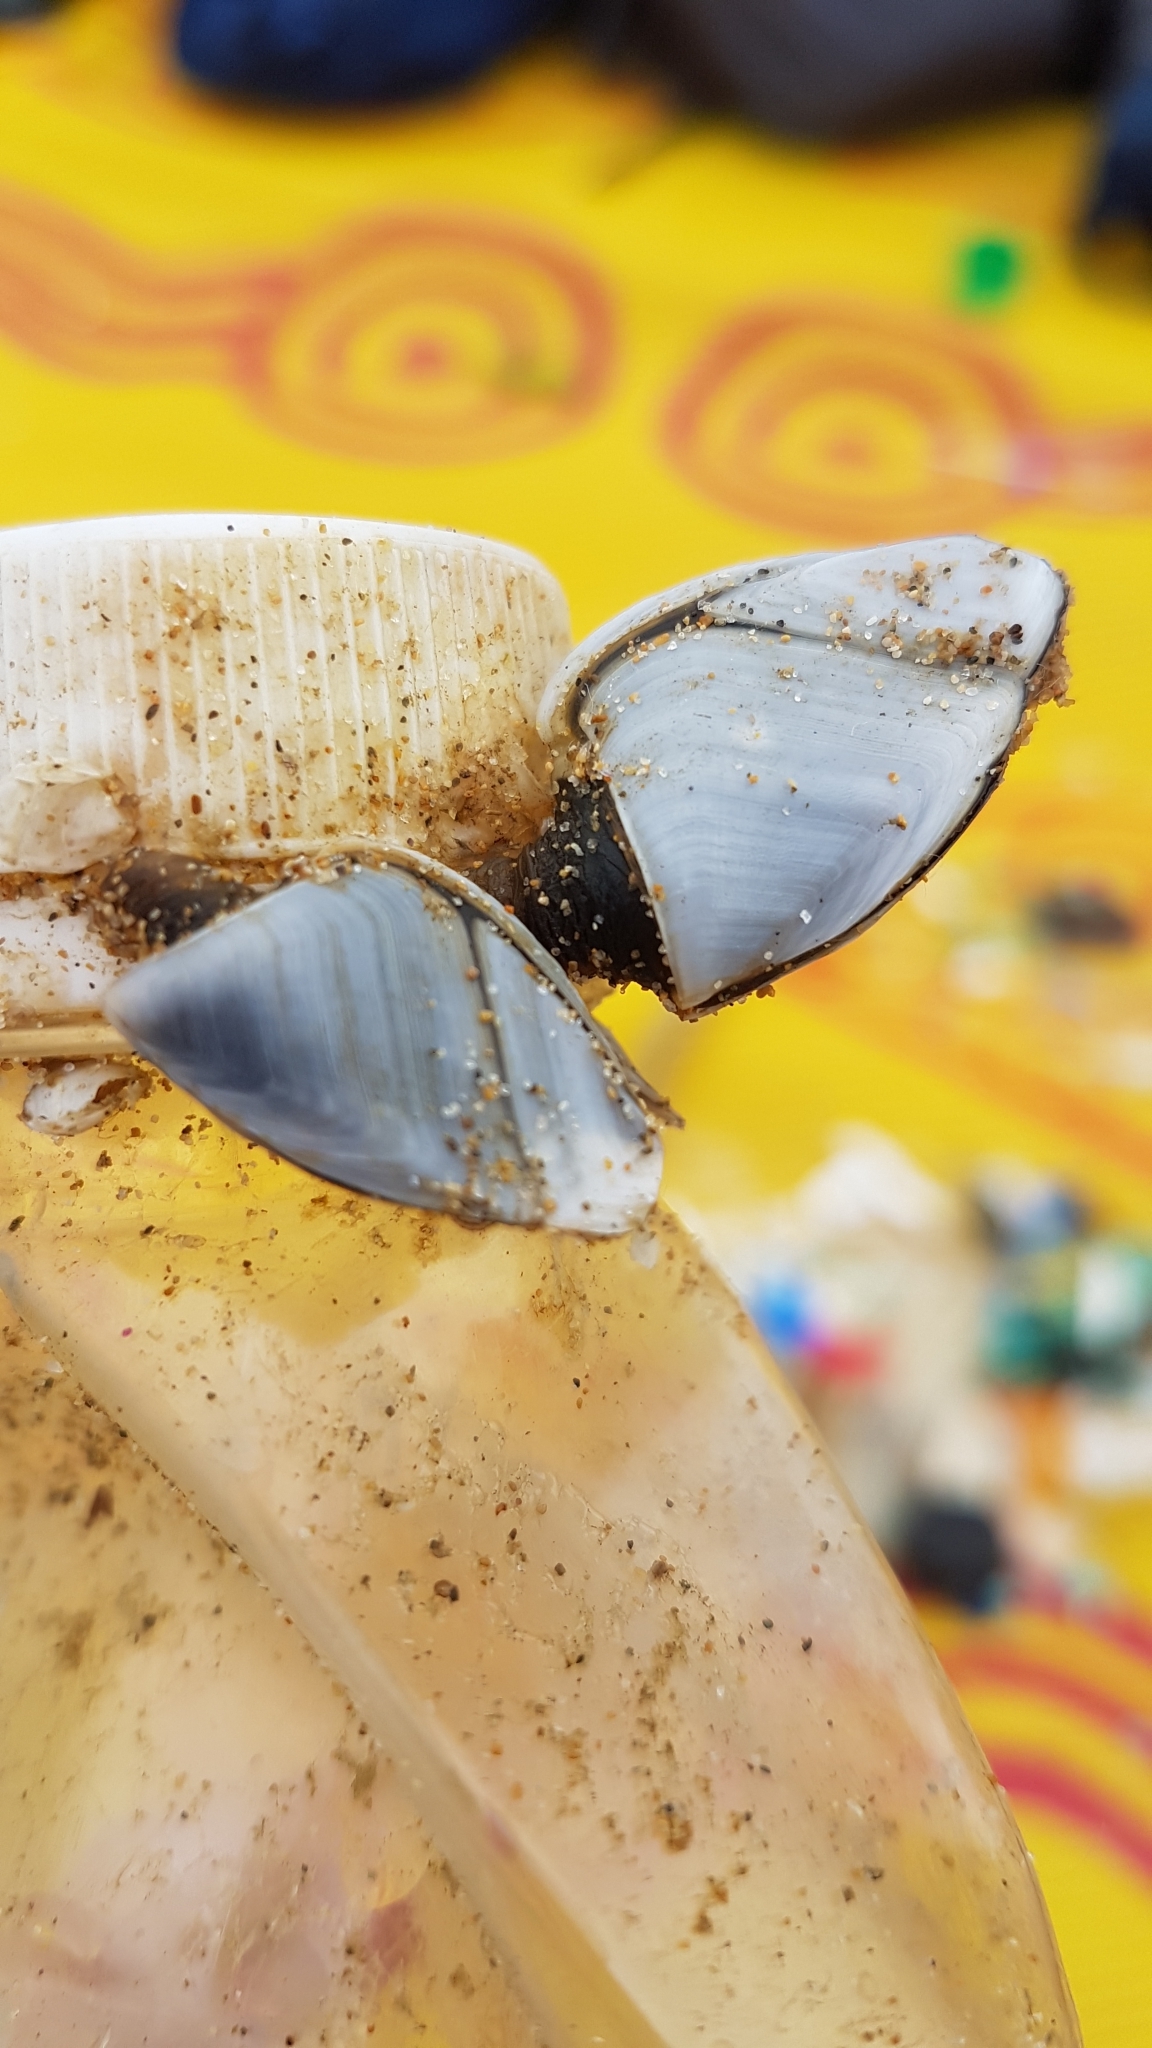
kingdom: Animalia
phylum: Arthropoda
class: Maxillopoda
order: Pedunculata
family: Lepadidae
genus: Lepas
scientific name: Lepas anatifera
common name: Common goose barnacle
